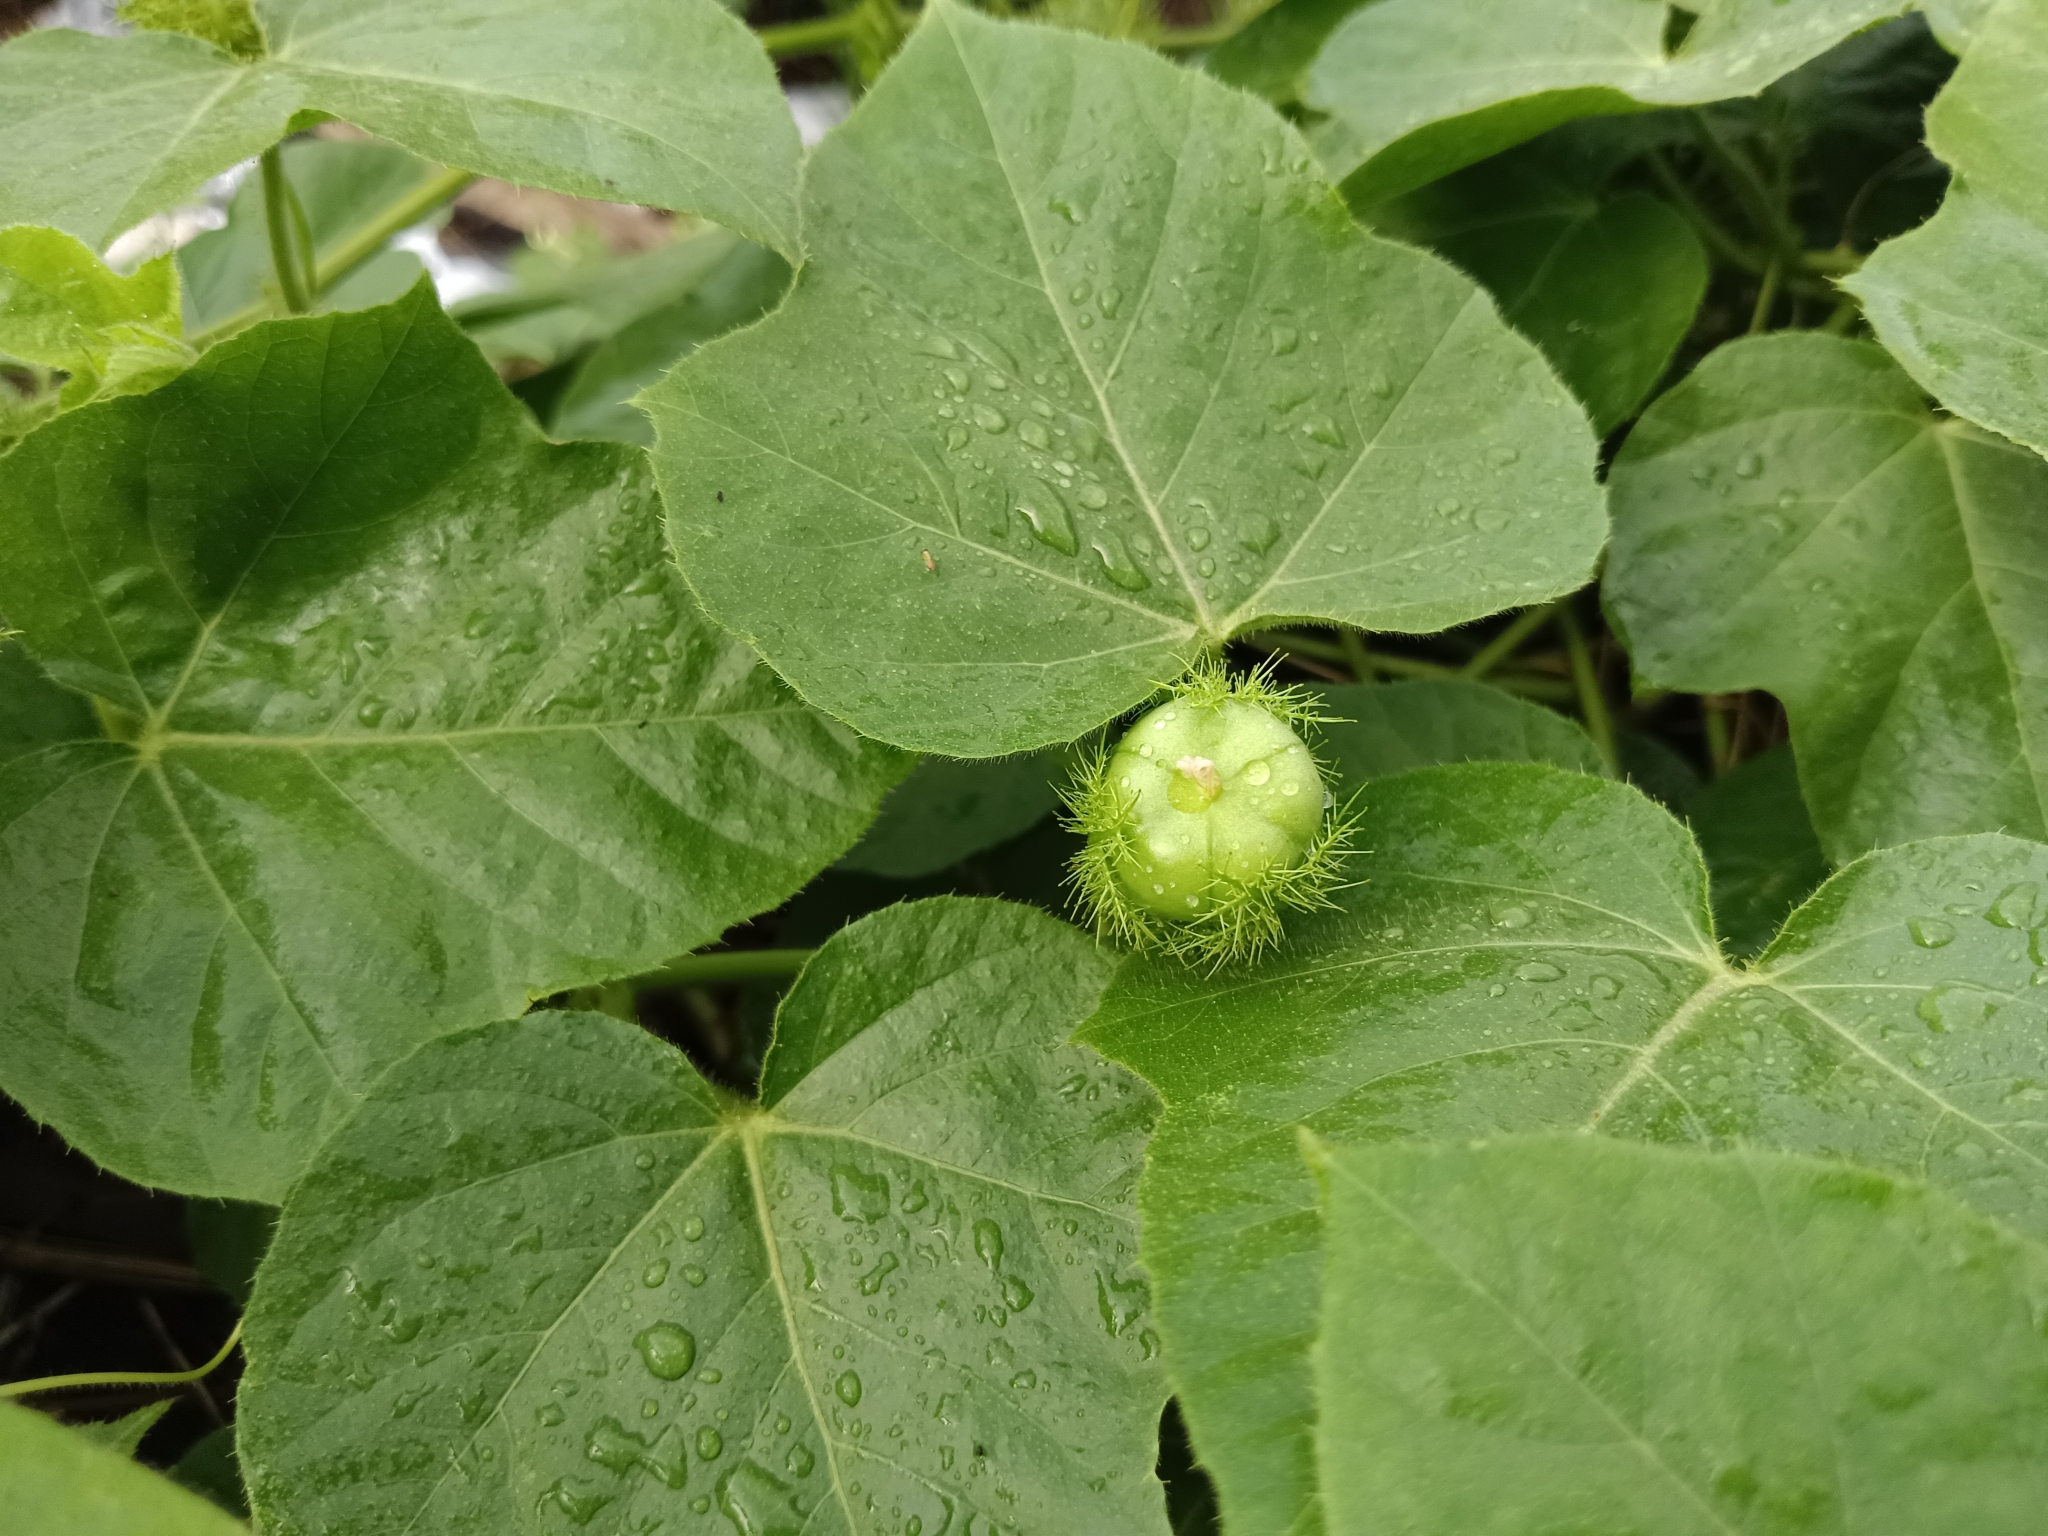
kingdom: Plantae
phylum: Tracheophyta
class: Magnoliopsida
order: Malpighiales
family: Passifloraceae
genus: Passiflora
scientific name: Passiflora vesicaria
